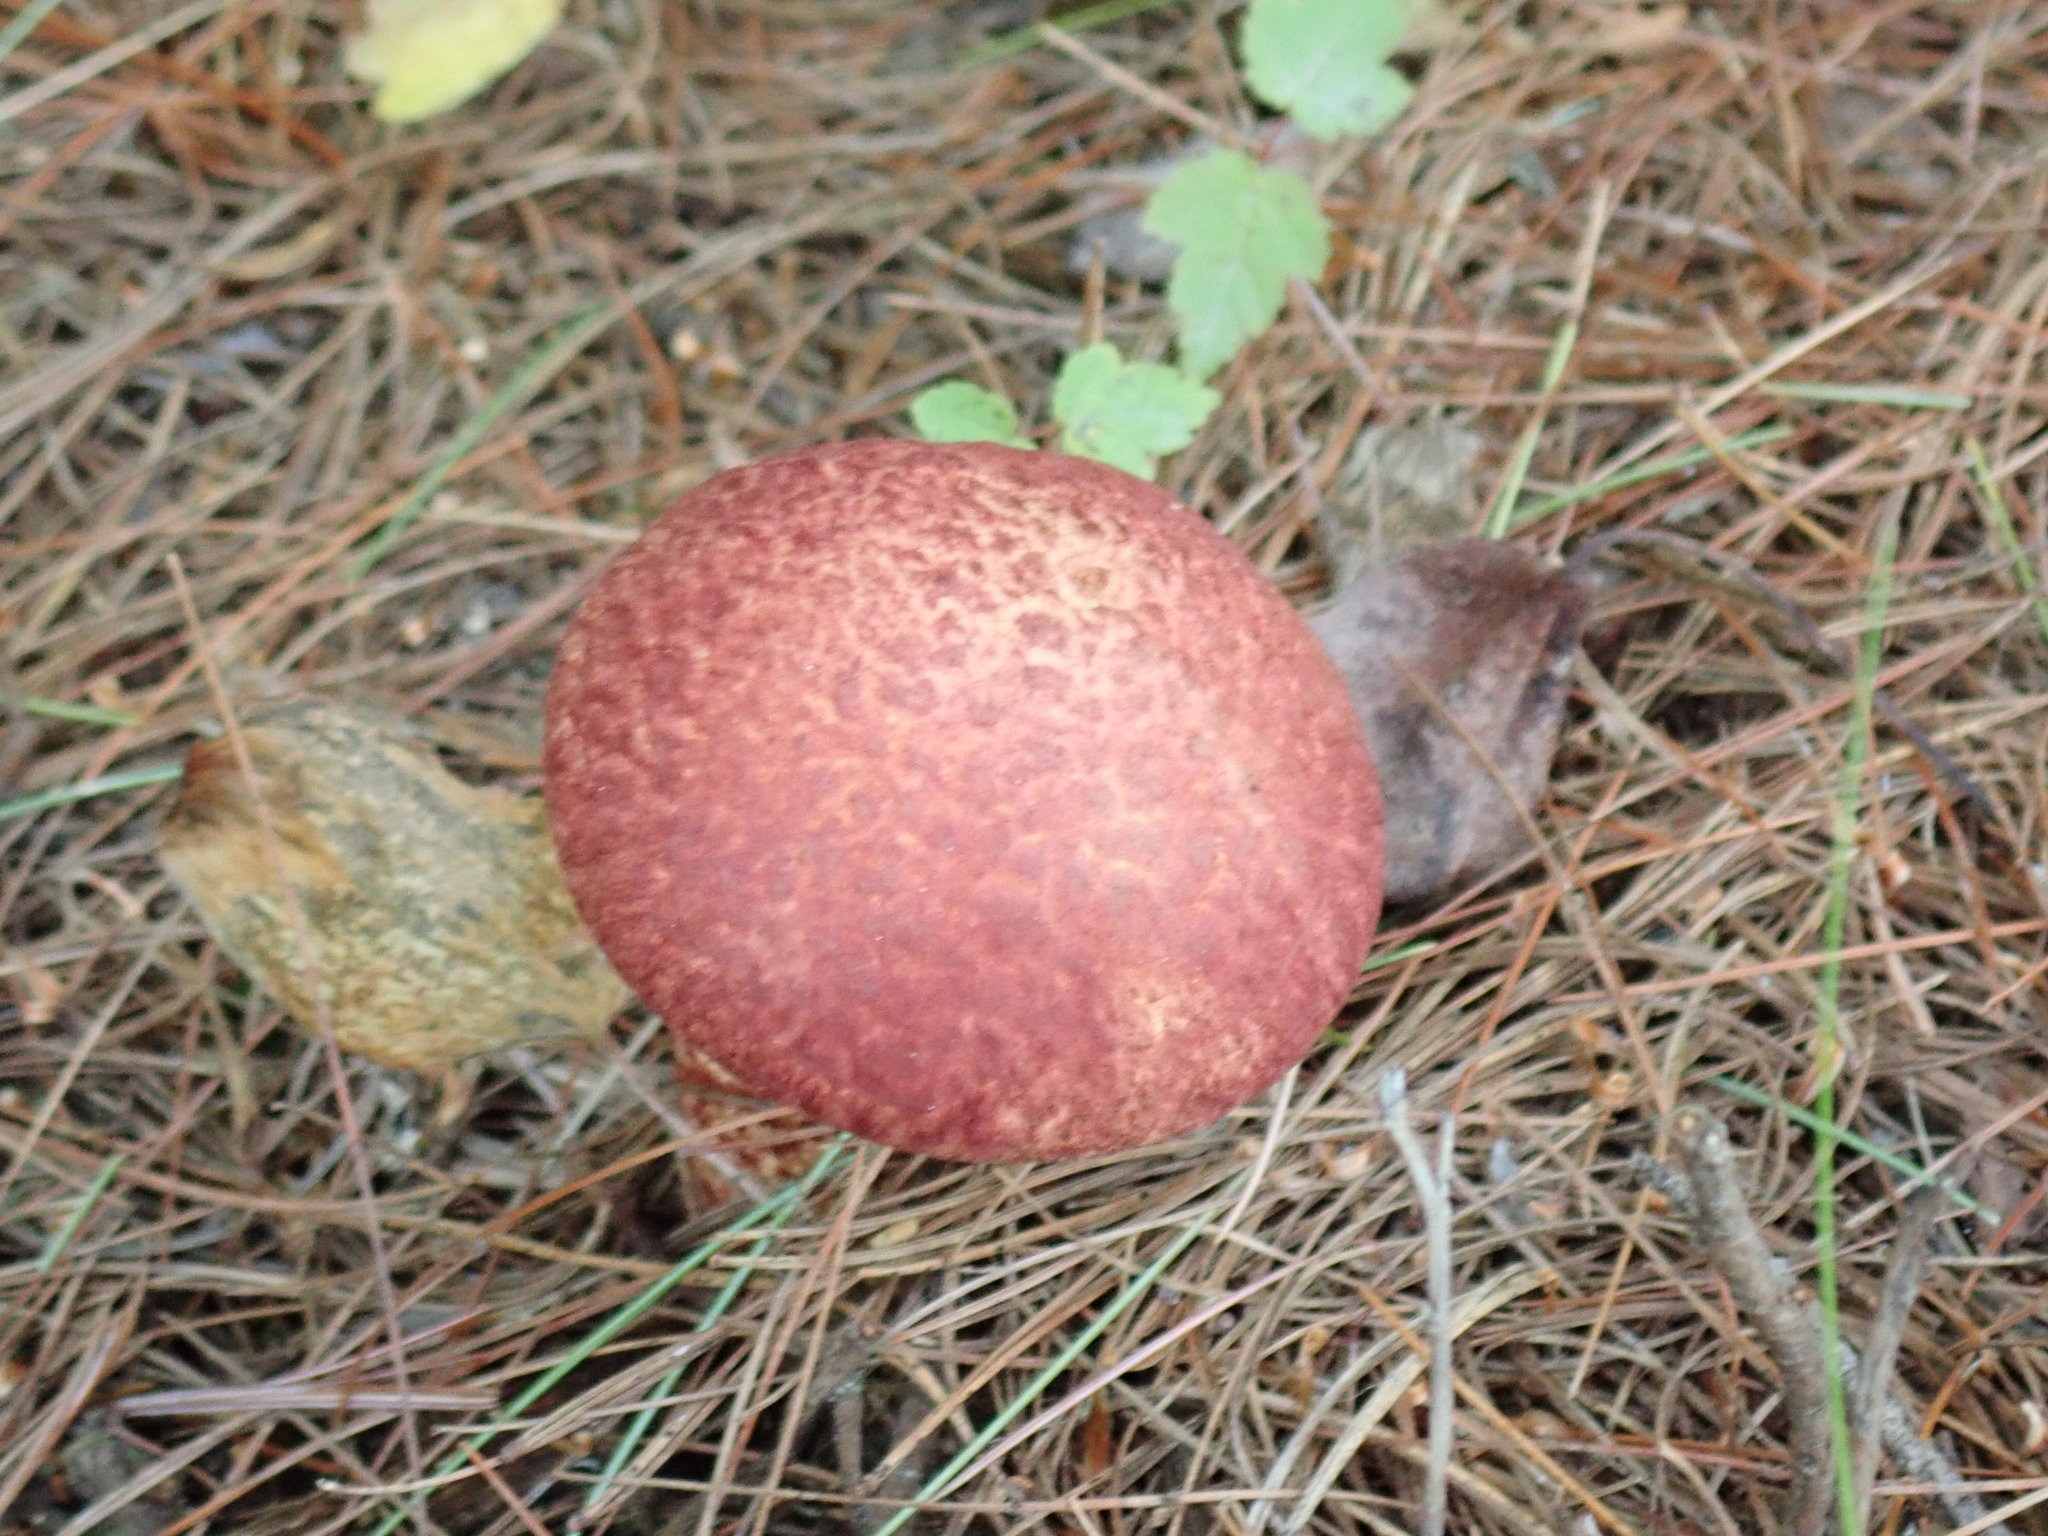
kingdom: Fungi
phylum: Basidiomycota
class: Agaricomycetes
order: Boletales
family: Suillaceae
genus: Suillus
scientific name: Suillus spraguei
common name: Painted suillus
